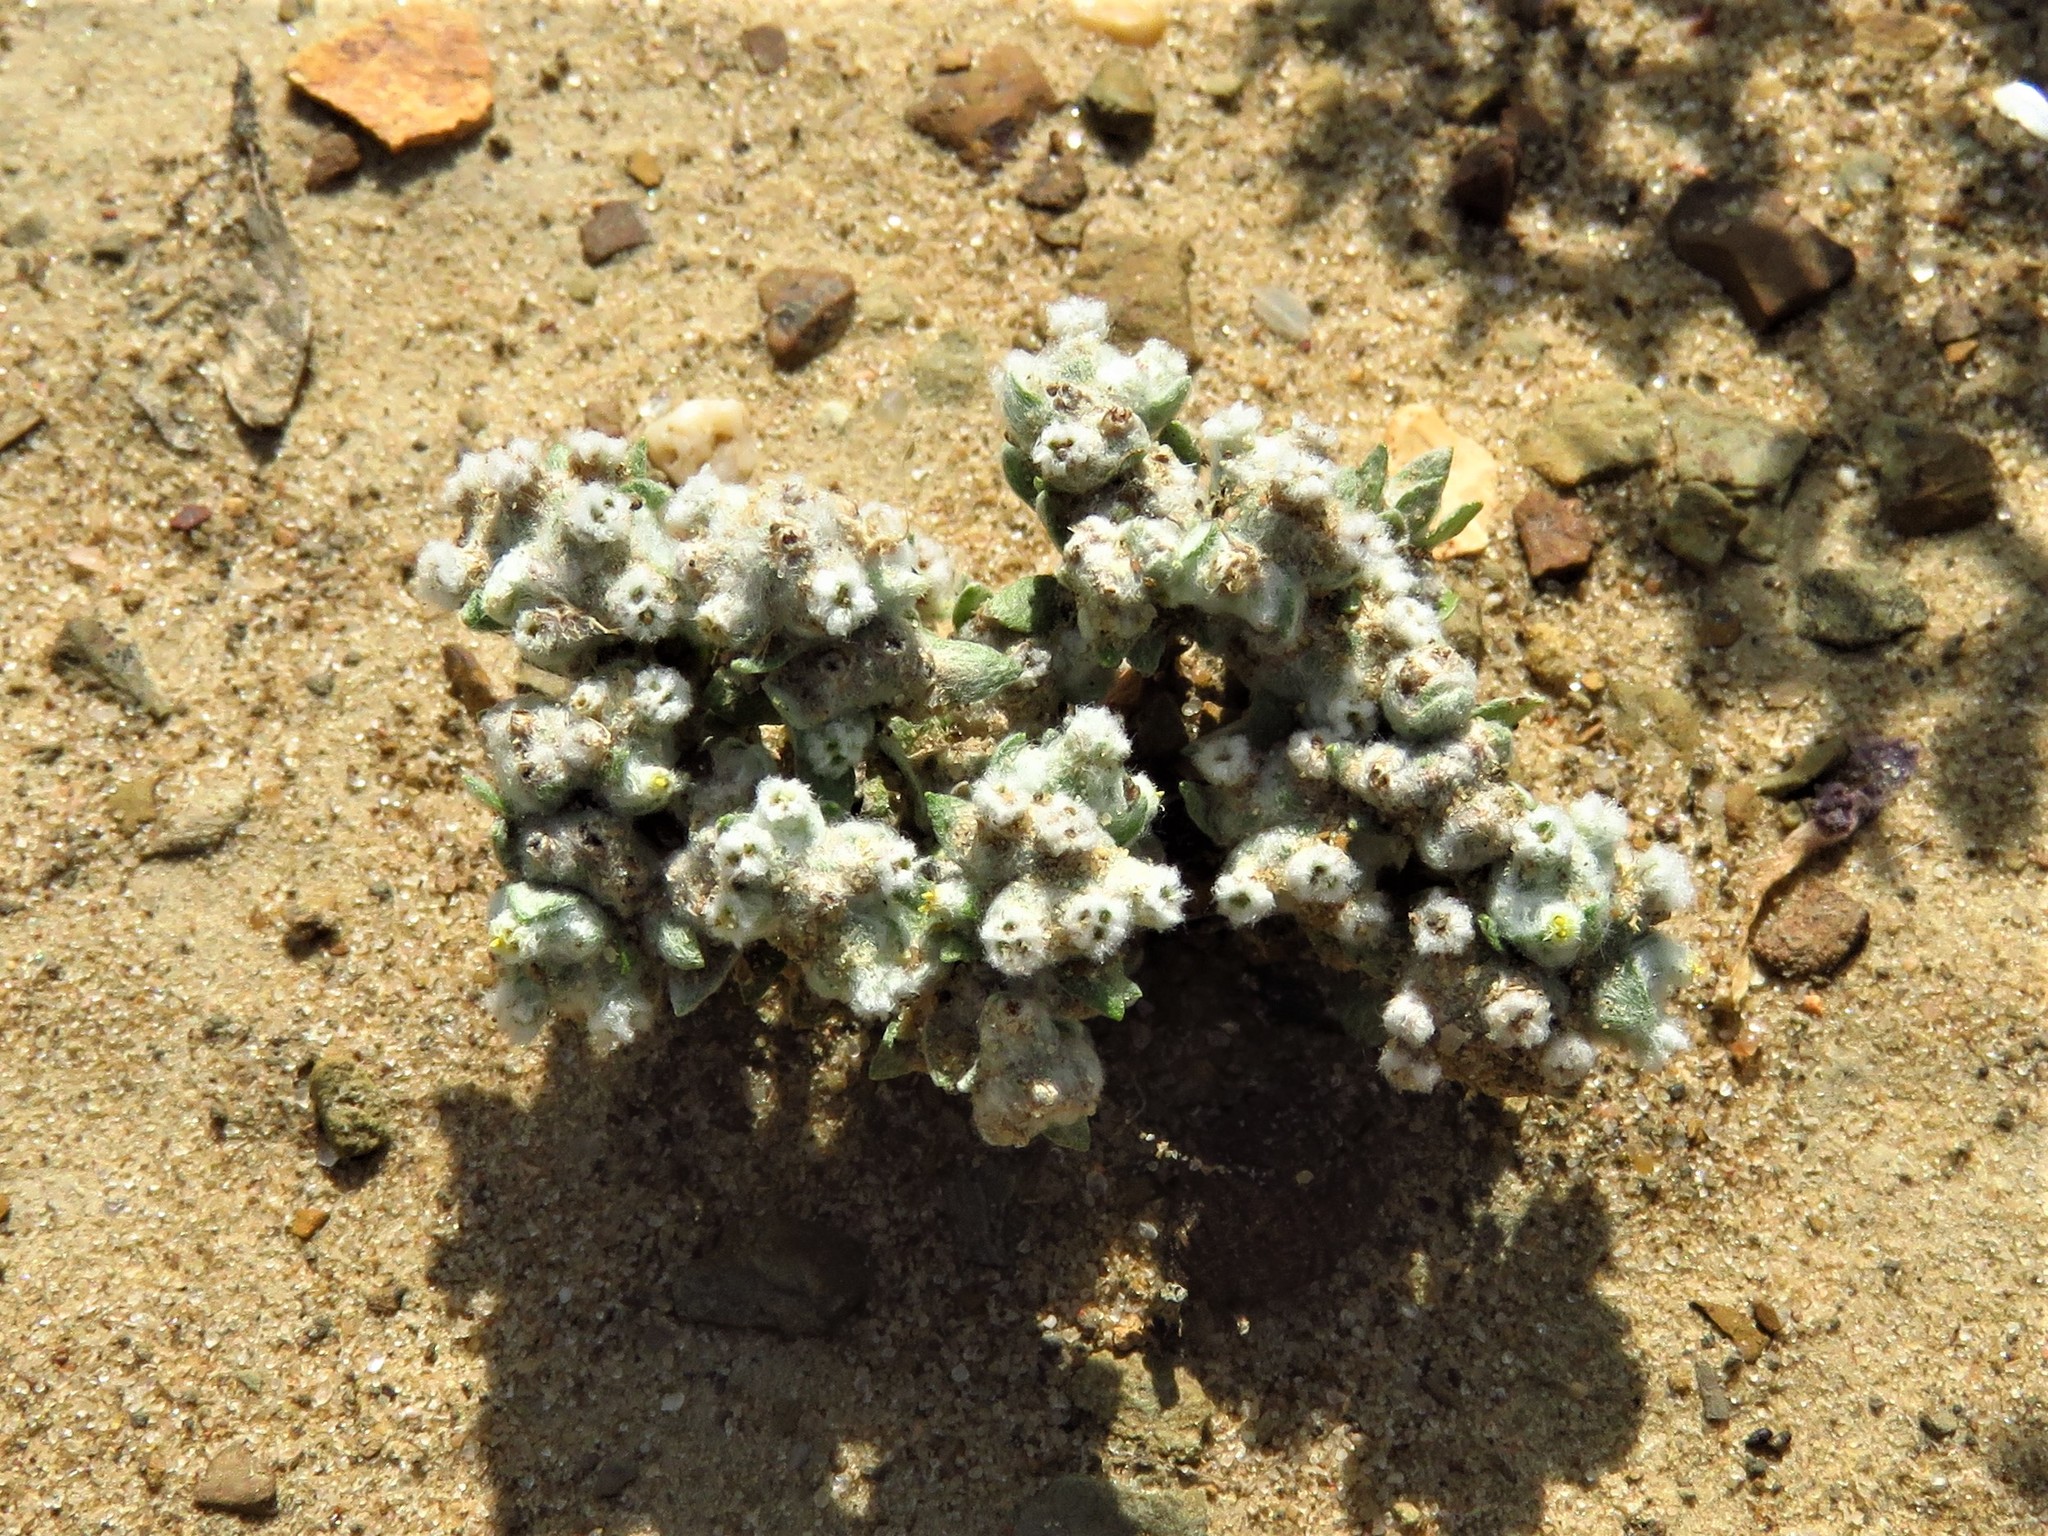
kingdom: Plantae
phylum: Tracheophyta
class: Magnoliopsida
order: Asterales
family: Asteraceae
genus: Diaperia
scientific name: Diaperia verna
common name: Many-stem rabbit-tobacco
